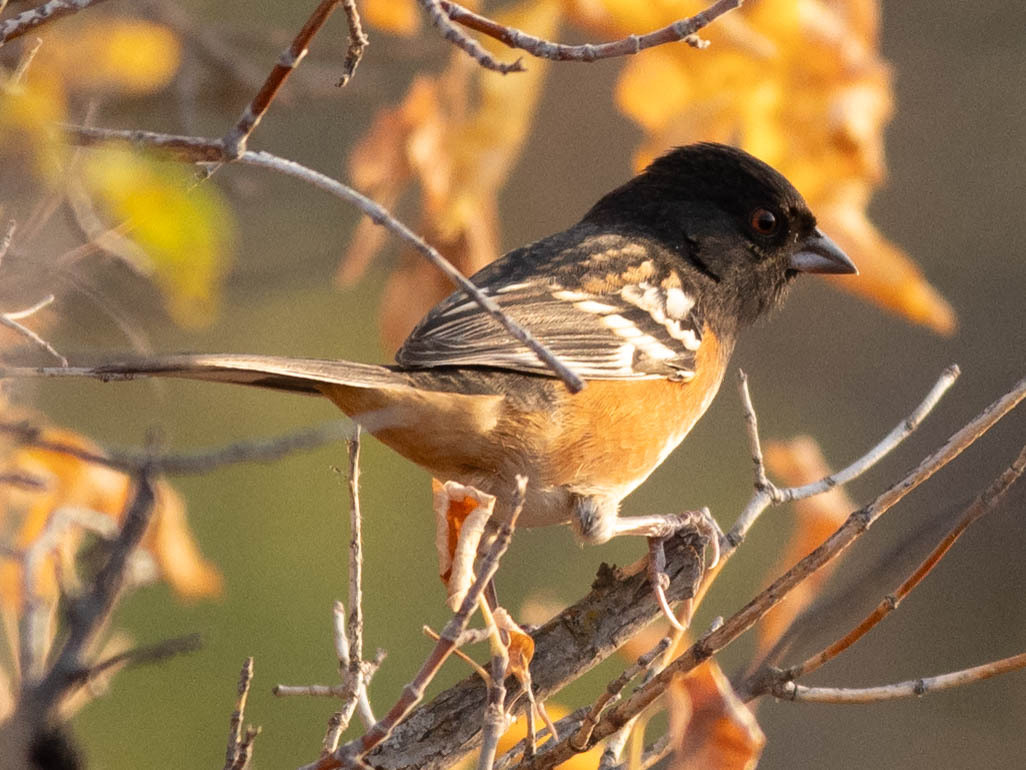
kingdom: Animalia
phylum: Chordata
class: Aves
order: Passeriformes
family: Passerellidae
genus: Pipilo
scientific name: Pipilo maculatus
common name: Spotted towhee
